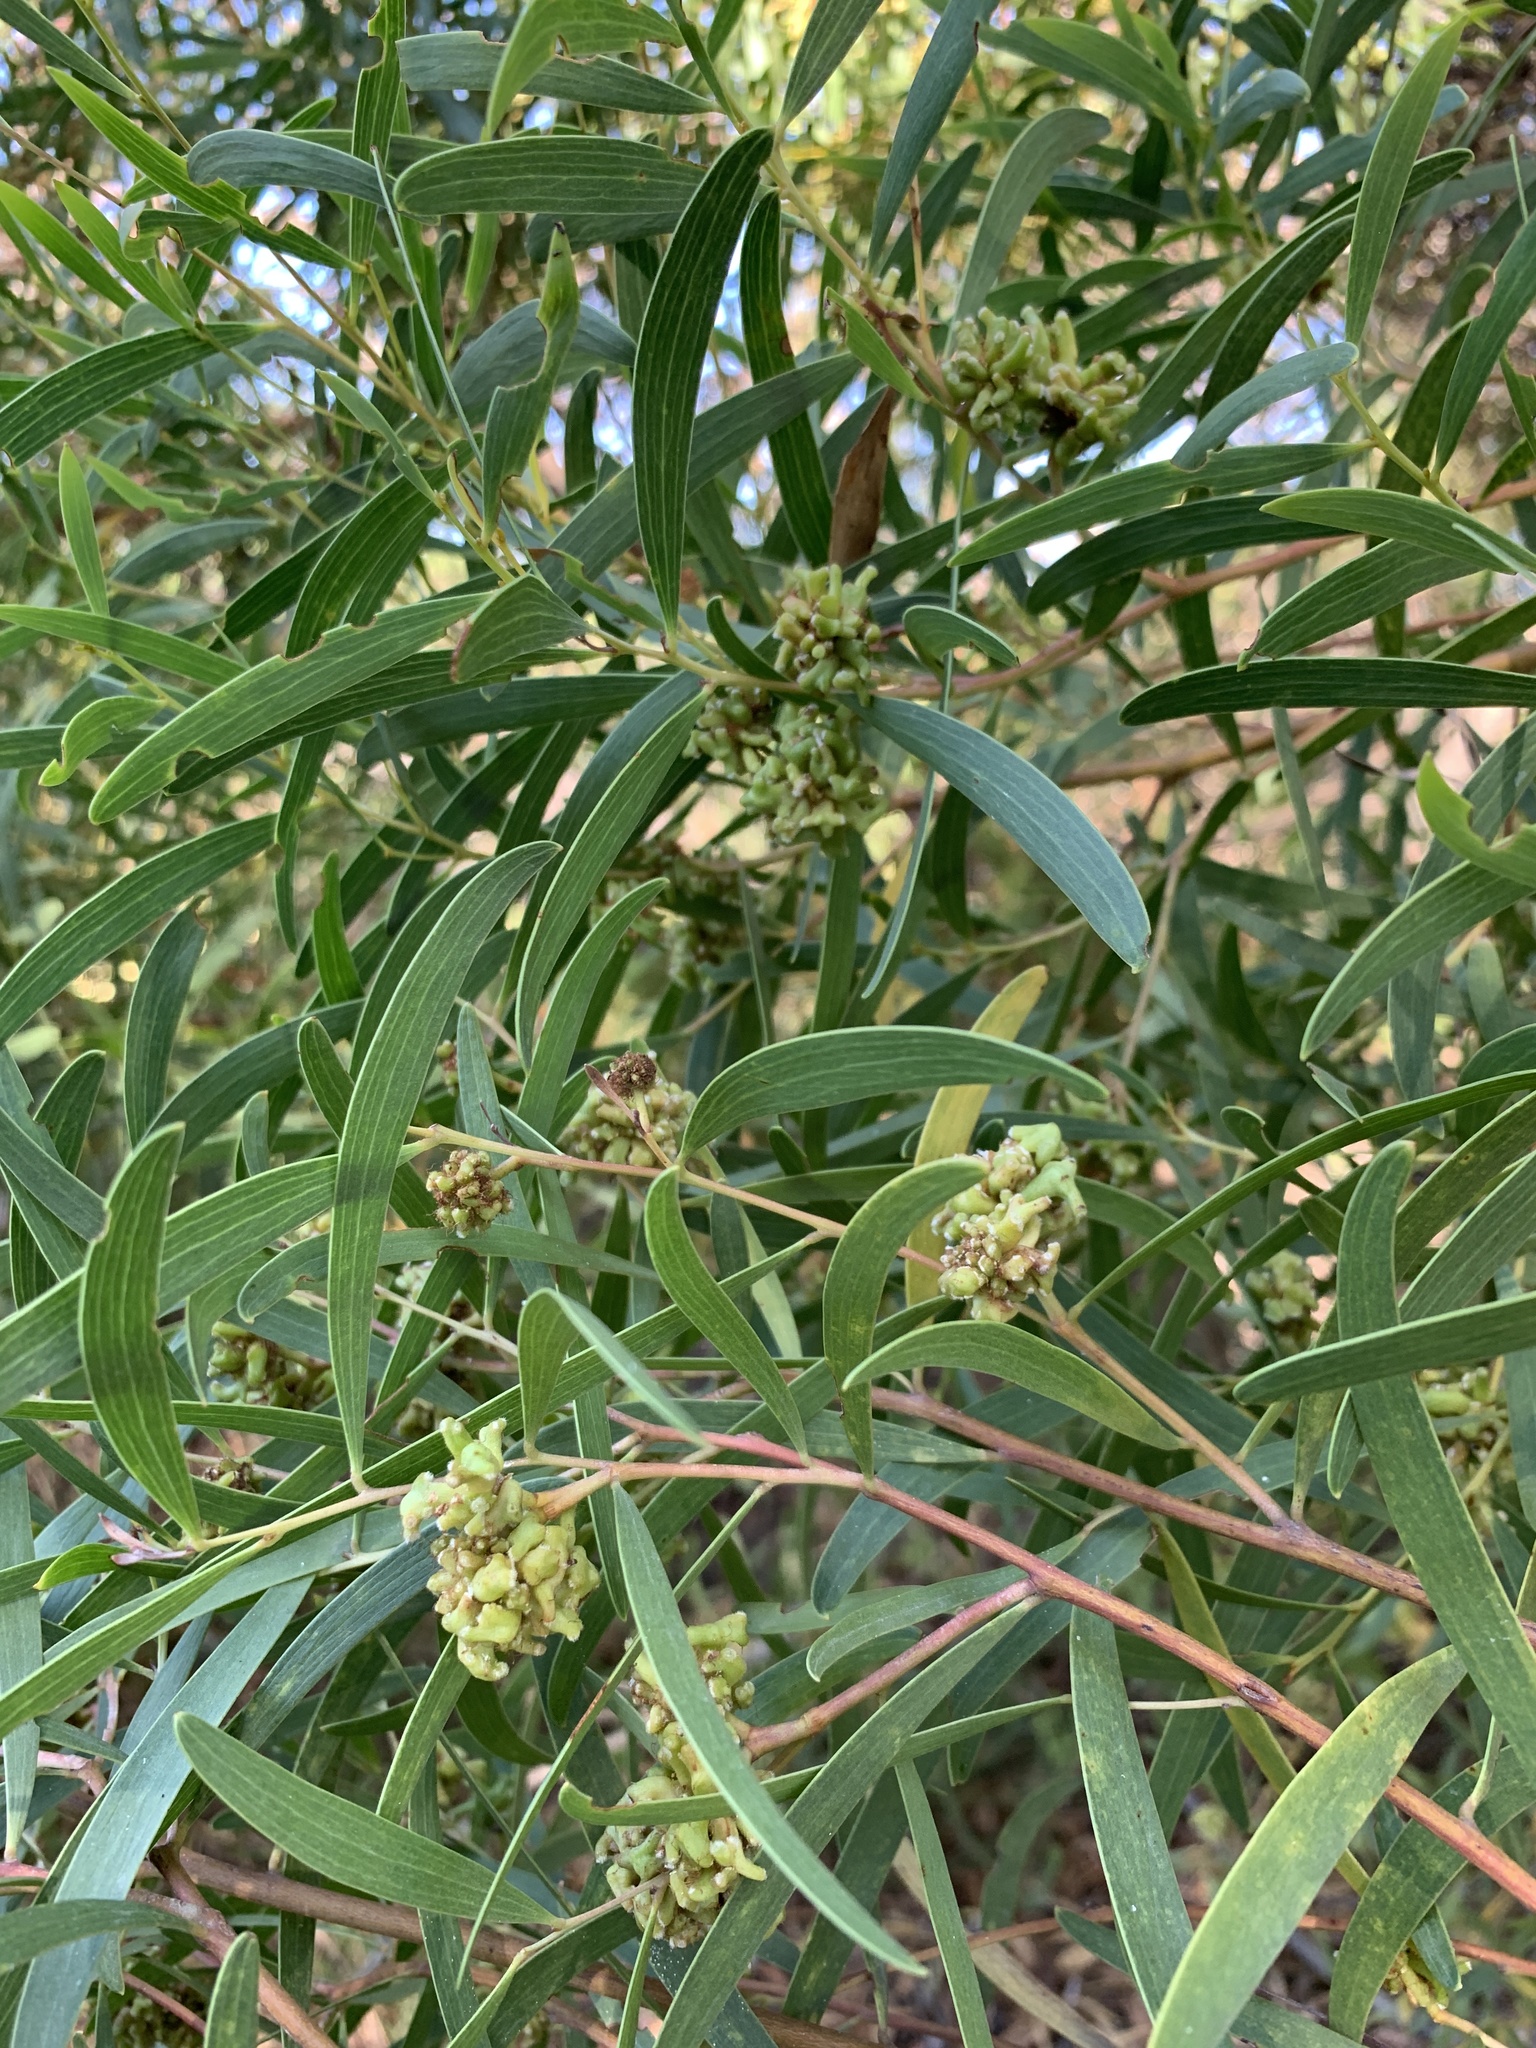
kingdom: Plantae
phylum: Tracheophyta
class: Magnoliopsida
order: Fabales
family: Fabaceae
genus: Acacia
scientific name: Acacia cyclops
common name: Coastal wattle
